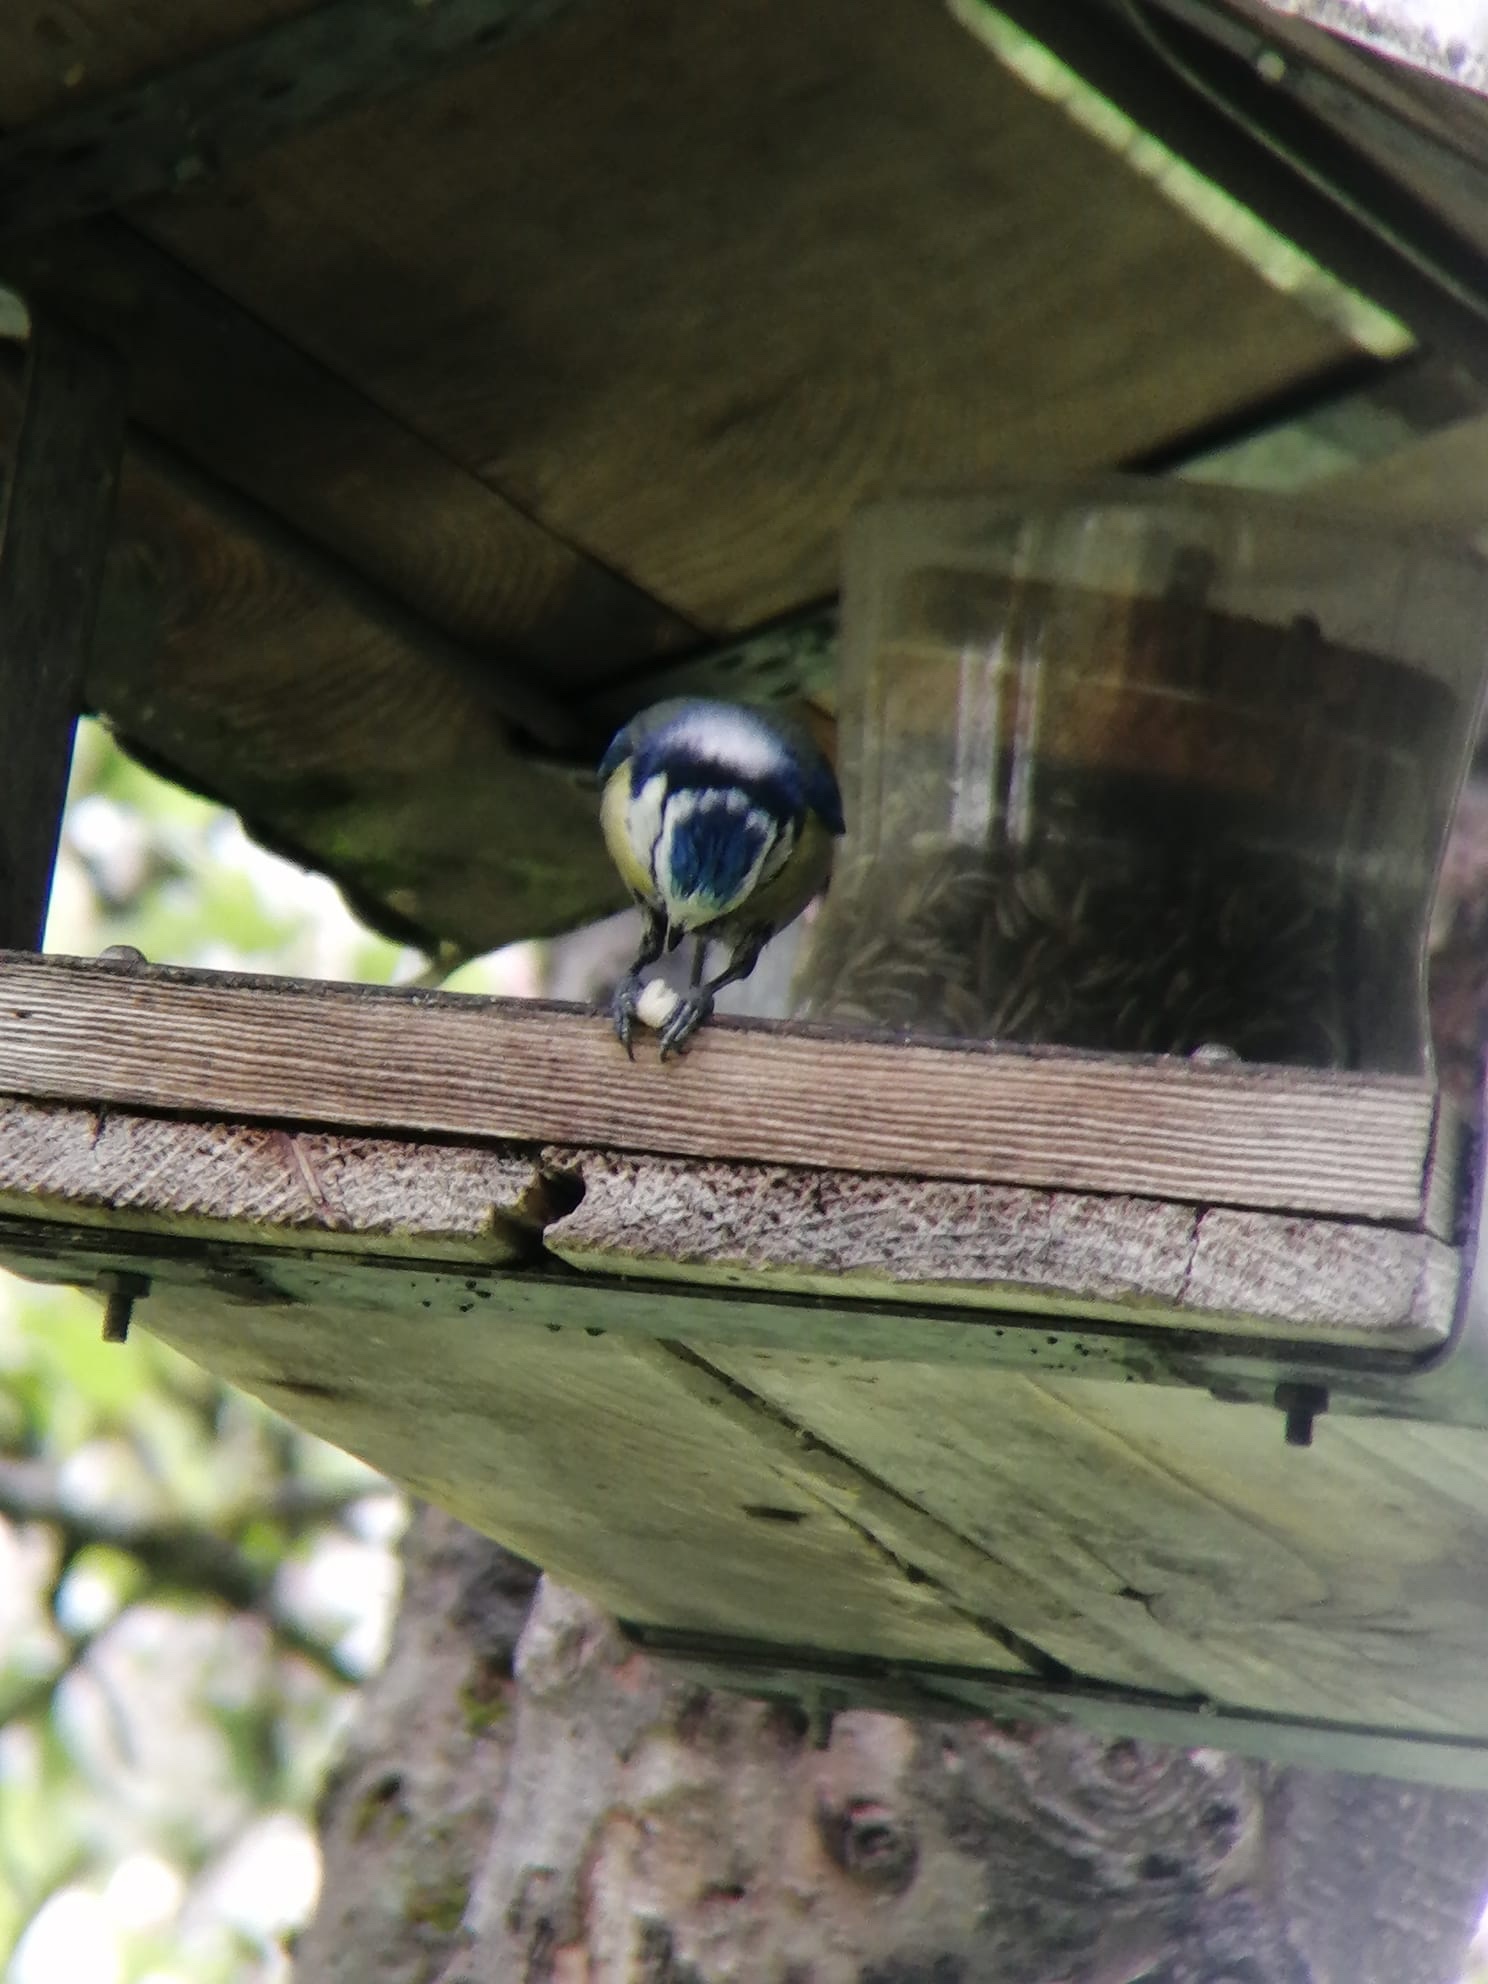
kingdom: Animalia
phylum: Chordata
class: Aves
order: Passeriformes
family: Paridae
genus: Cyanistes
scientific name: Cyanistes caeruleus
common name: Eurasian blue tit
